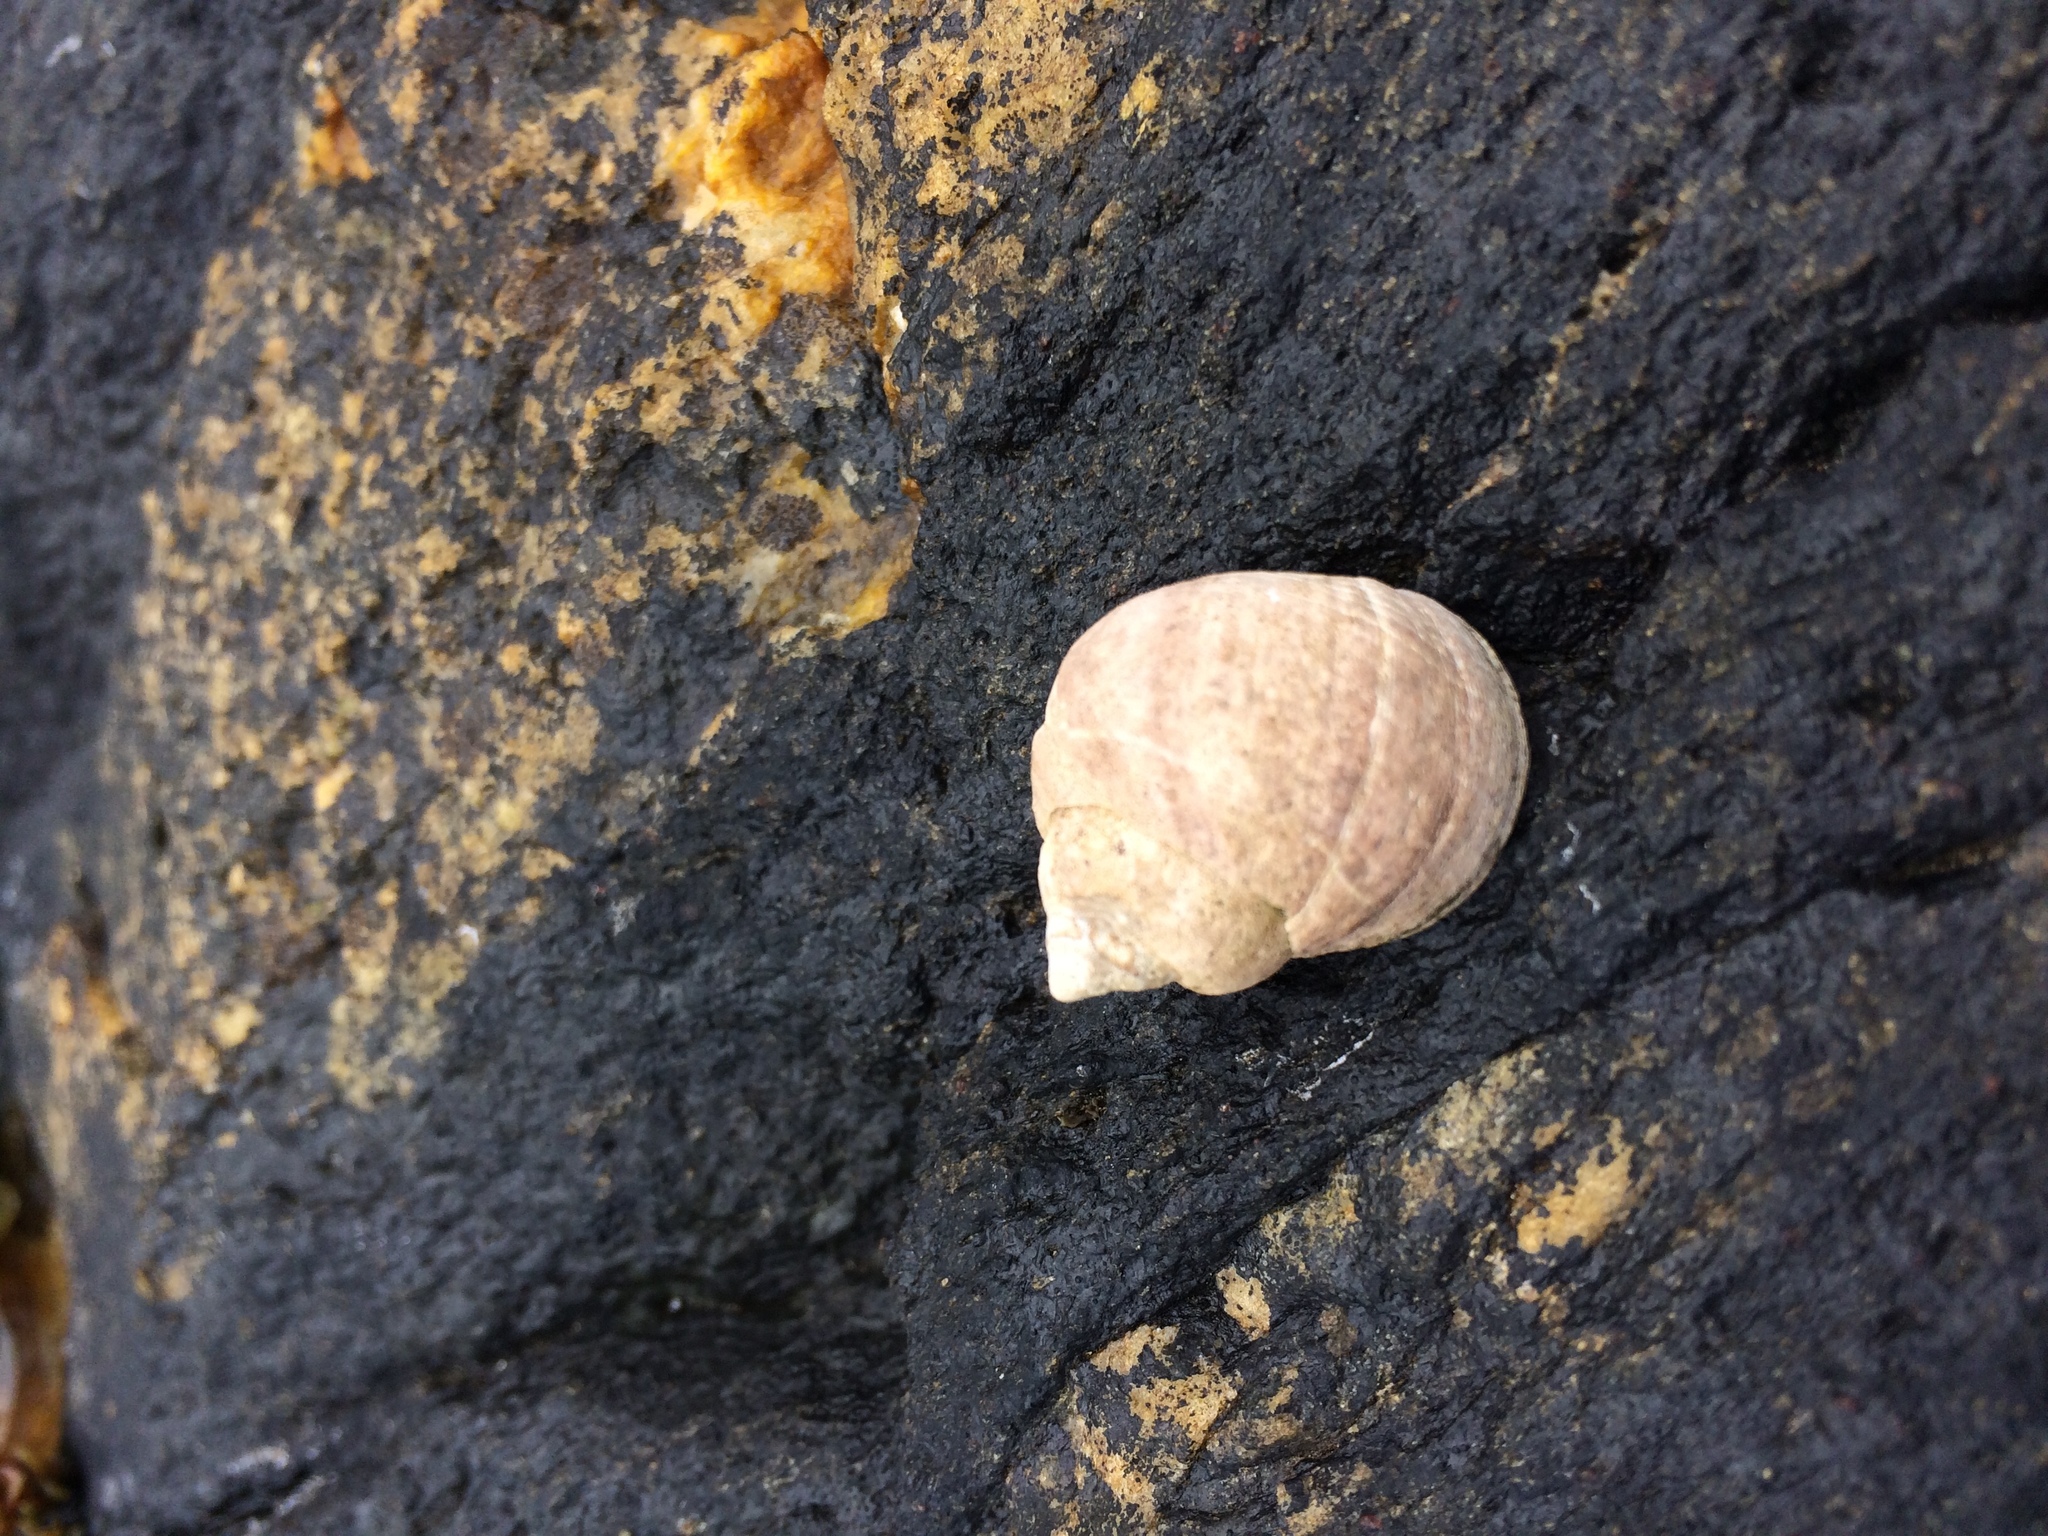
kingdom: Animalia
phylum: Mollusca
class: Gastropoda
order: Littorinimorpha
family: Littorinidae
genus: Littorina
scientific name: Littorina littorea
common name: Common periwinkle
